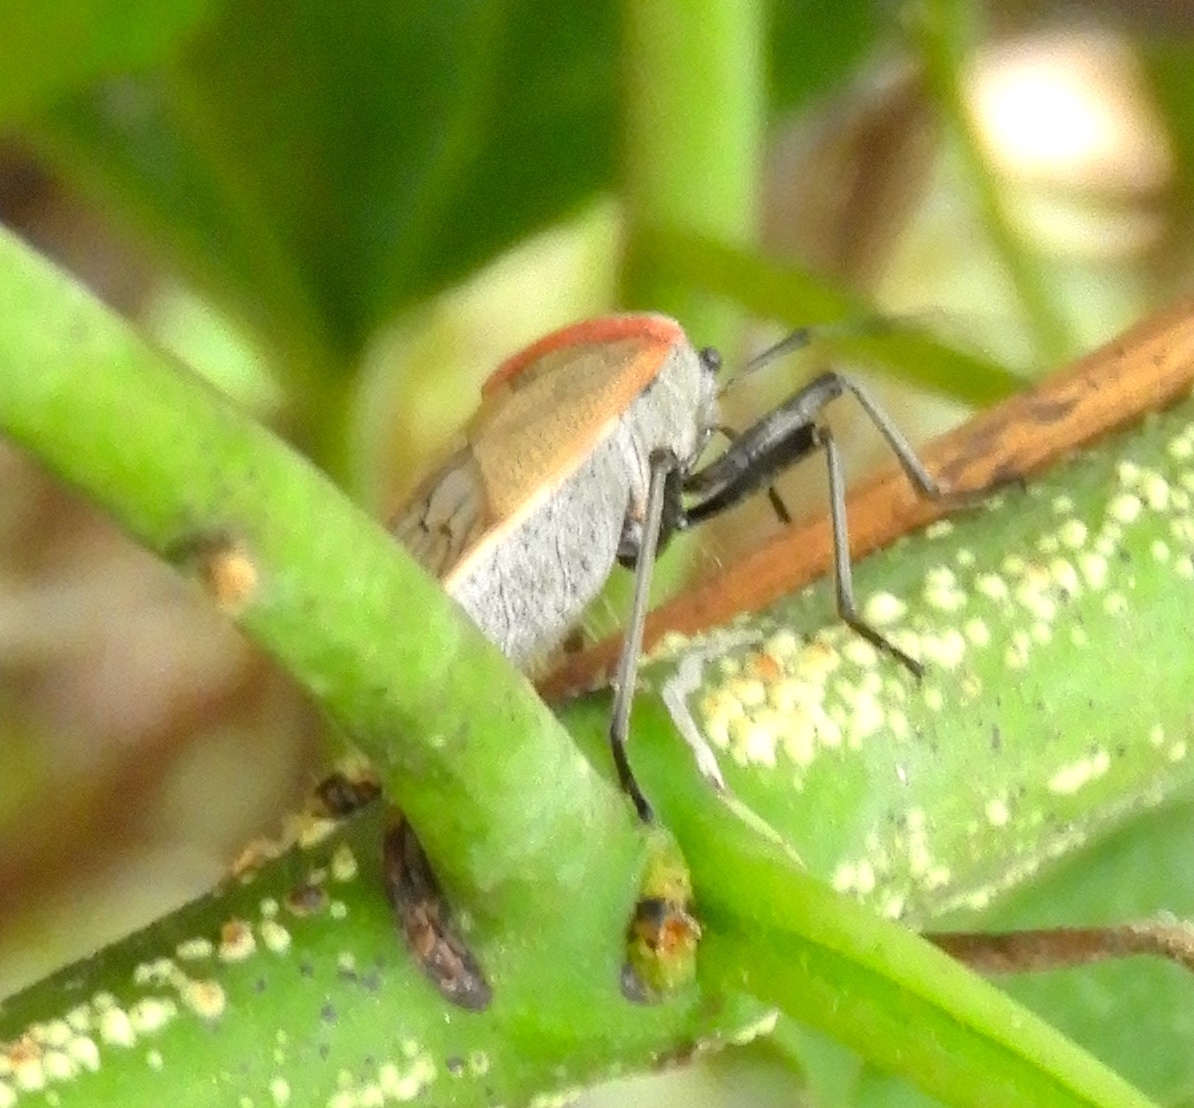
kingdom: Animalia
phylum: Arthropoda
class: Insecta
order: Hemiptera
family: Largidae
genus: Largus
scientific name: Largus
